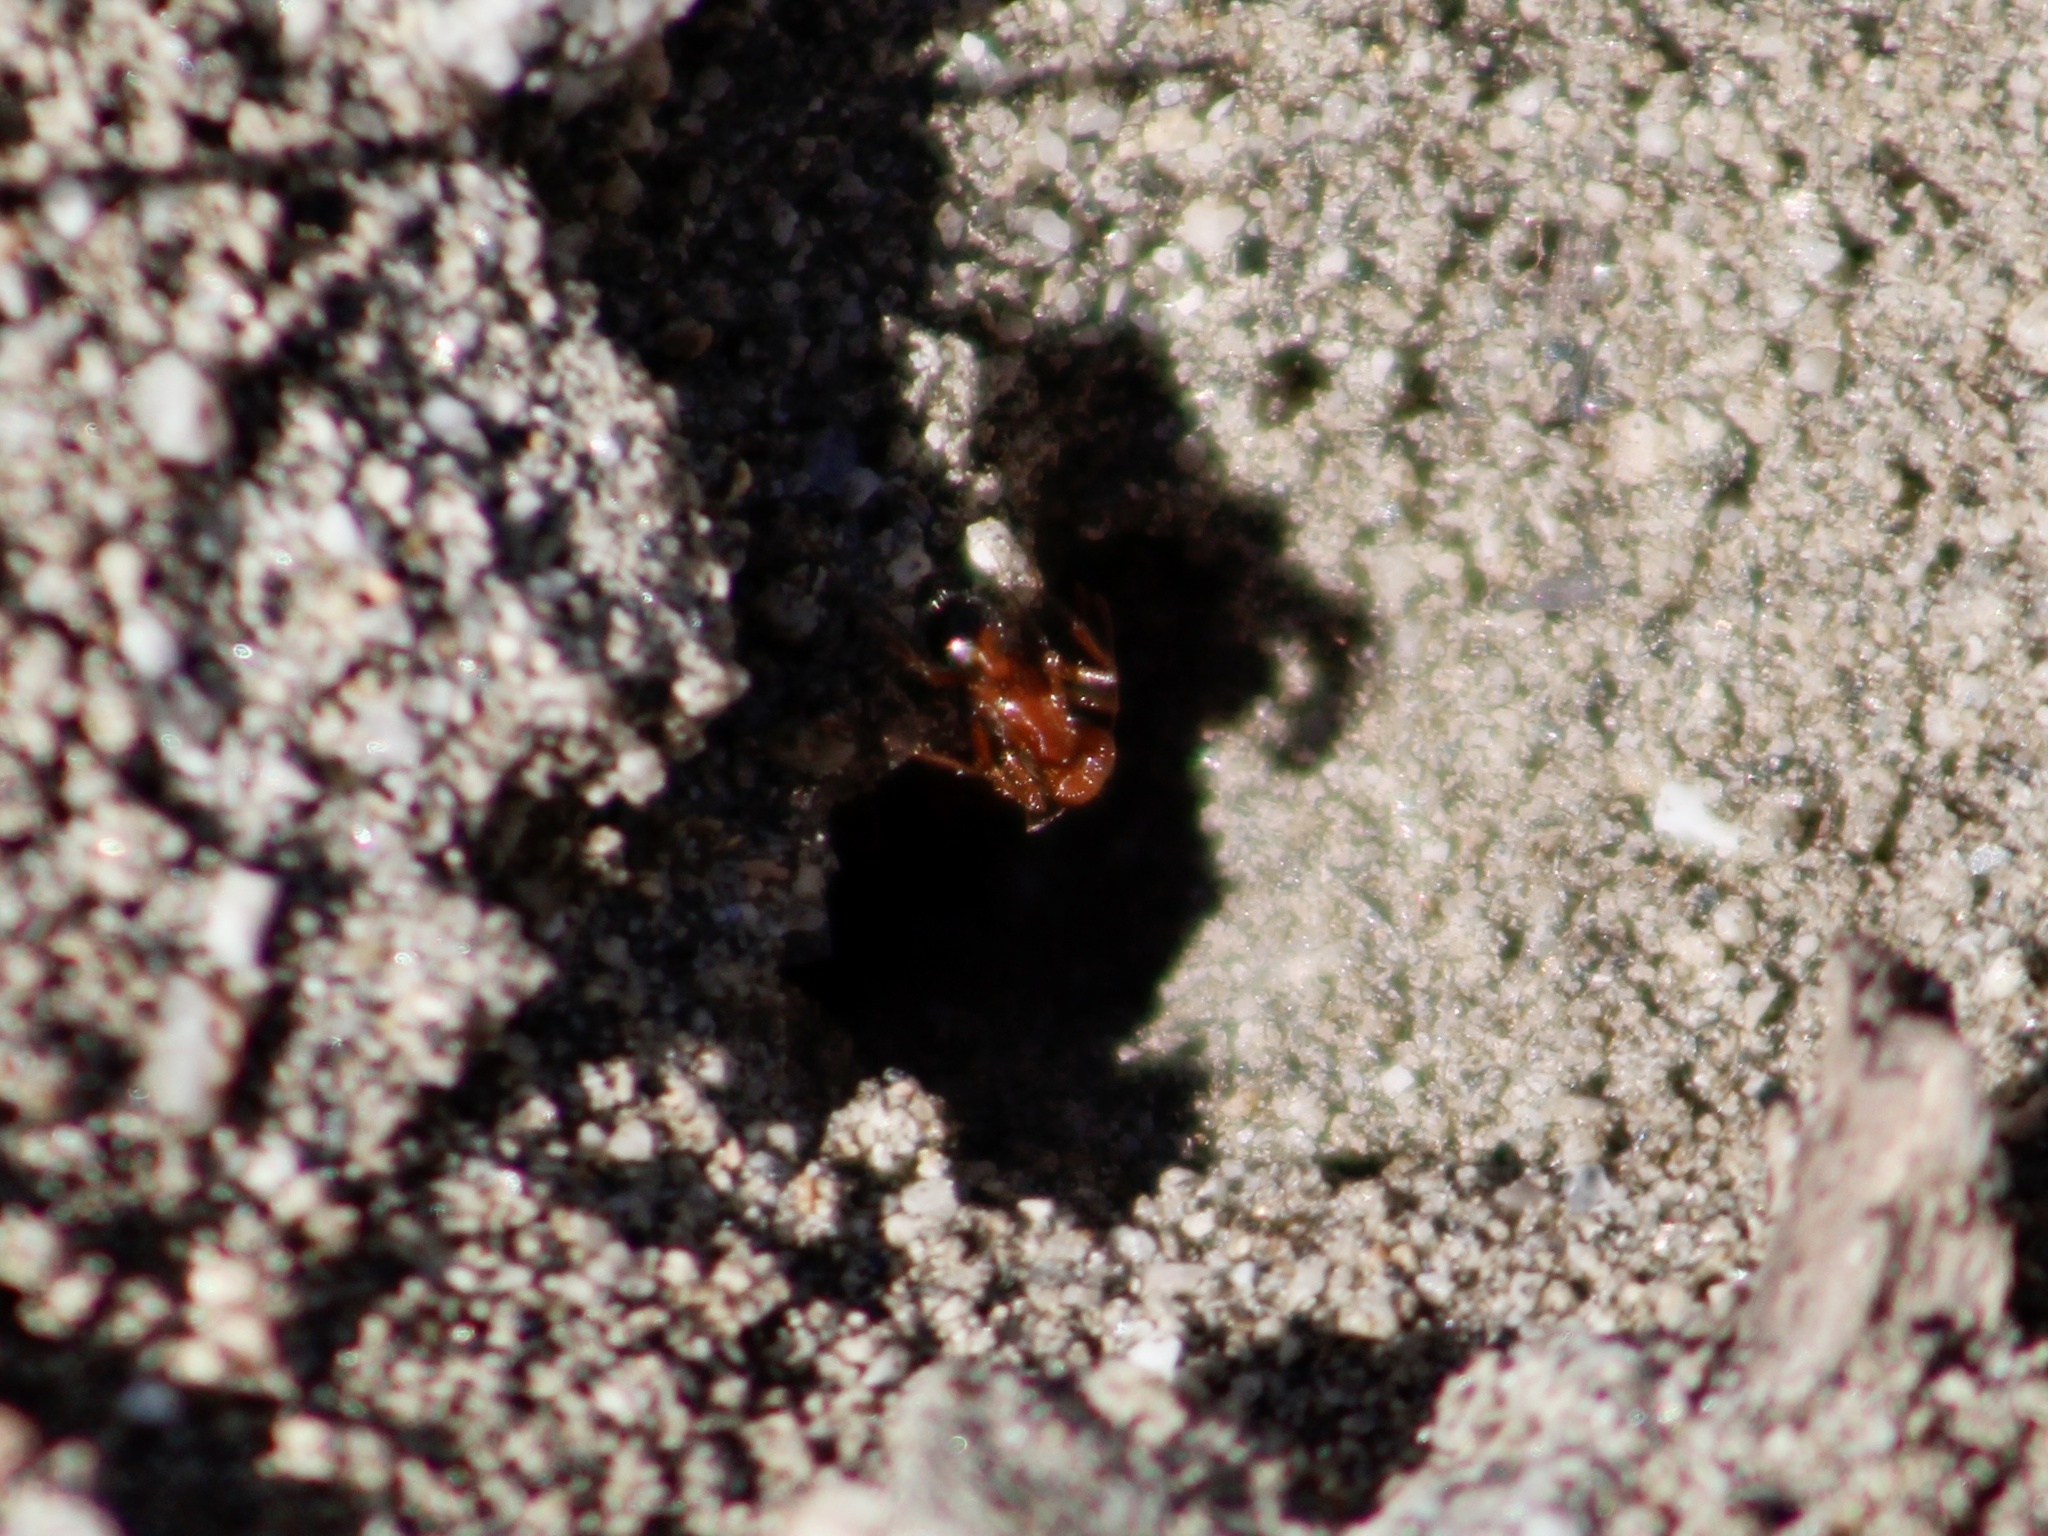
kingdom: Animalia
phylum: Arthropoda
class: Insecta
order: Hymenoptera
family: Formicidae
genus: Pogonomyrmex
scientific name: Pogonomyrmex californicus
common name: California harvester ant
